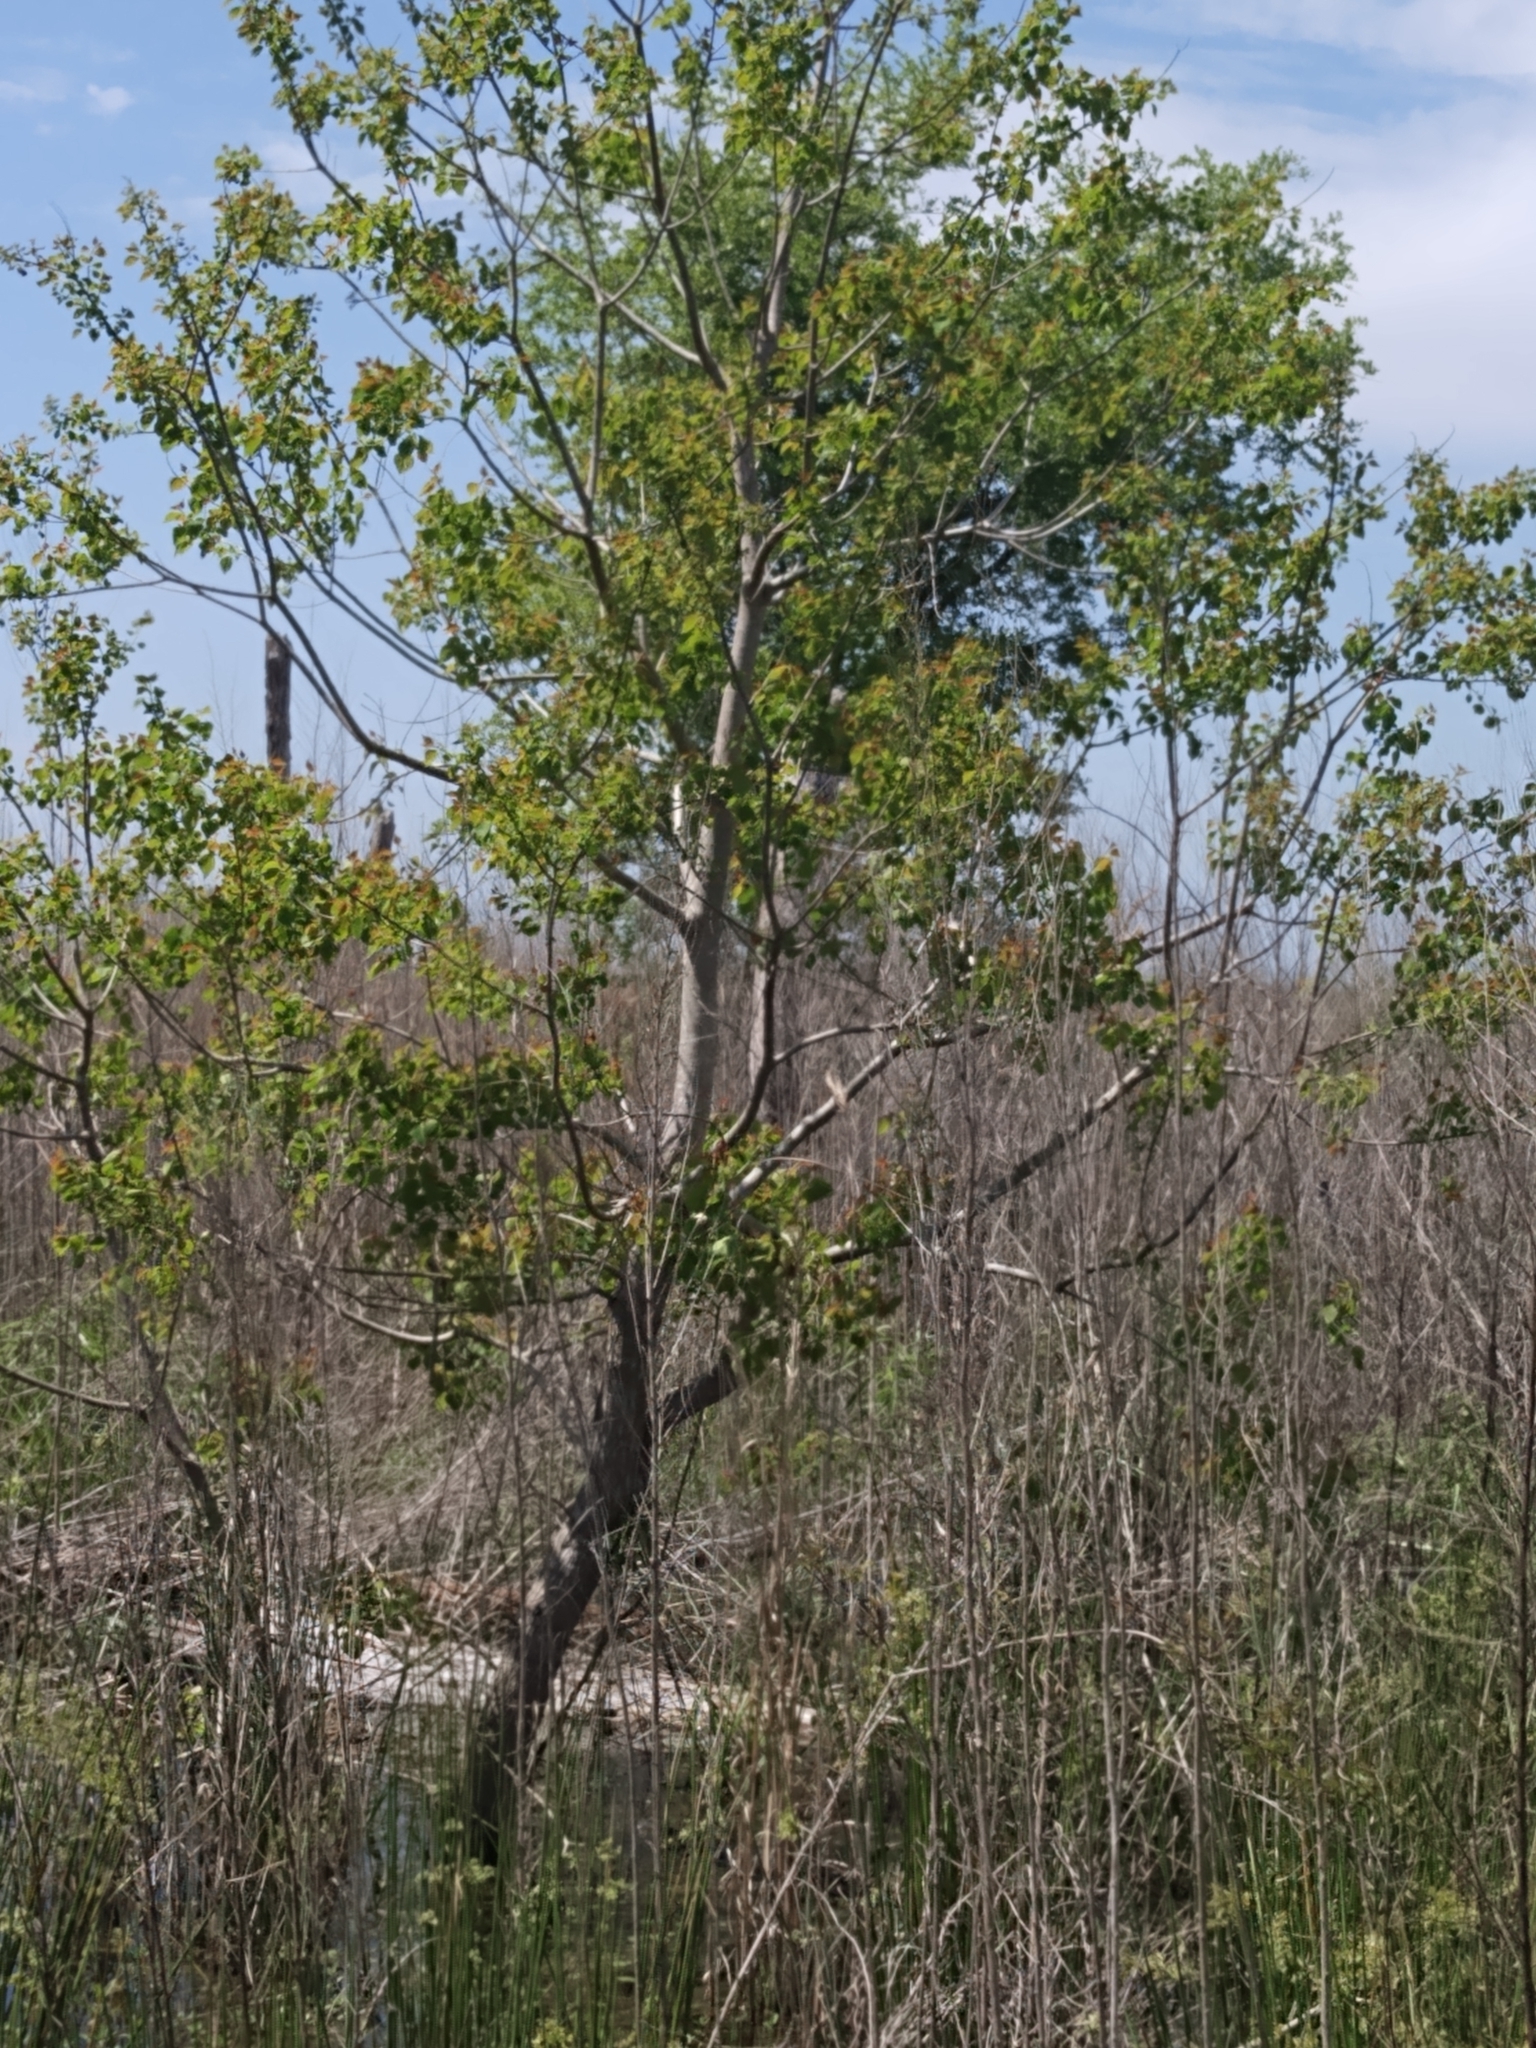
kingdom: Plantae
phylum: Tracheophyta
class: Magnoliopsida
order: Malpighiales
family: Euphorbiaceae
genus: Triadica
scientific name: Triadica sebifera
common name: Chinese tallow
